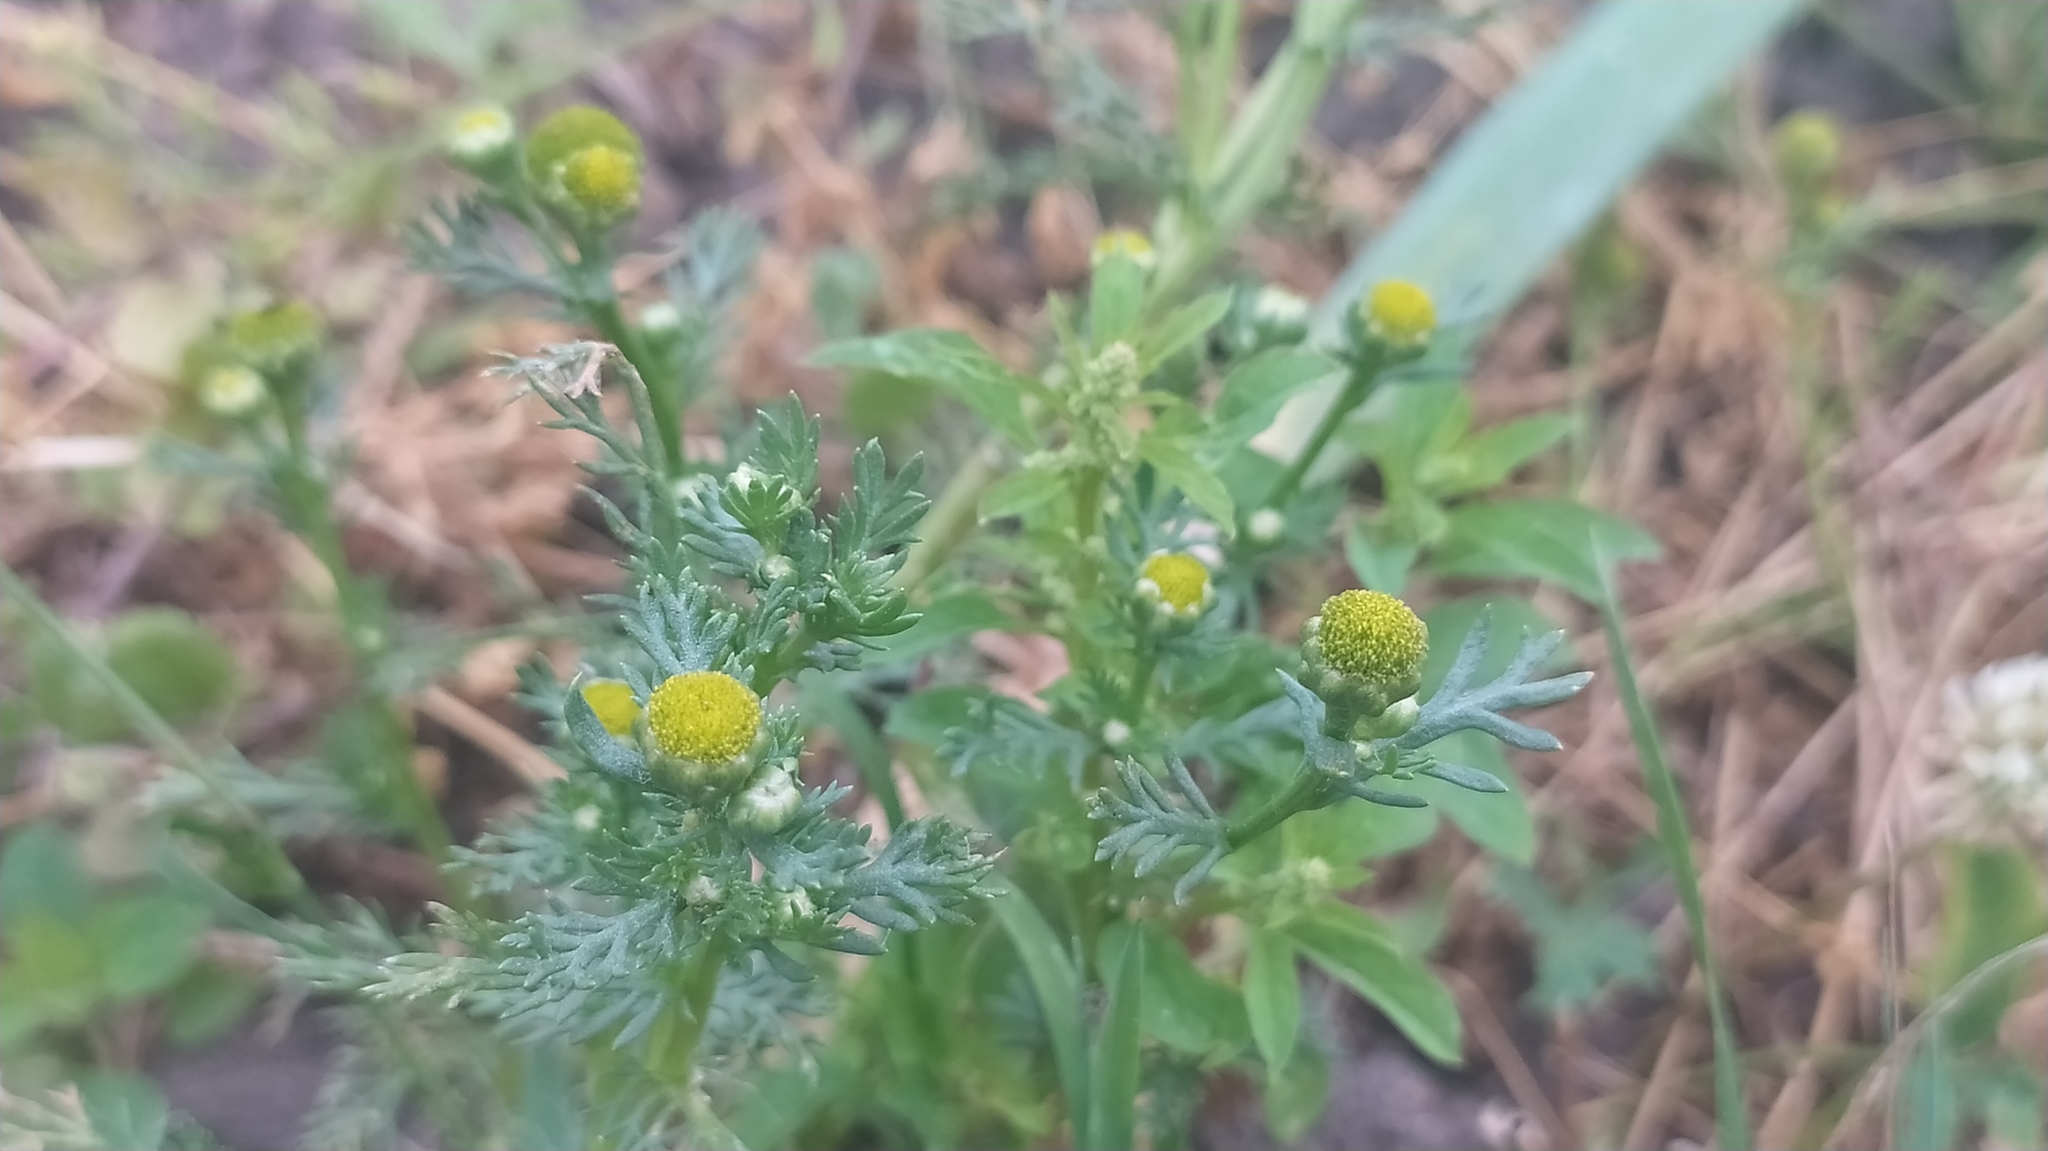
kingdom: Plantae
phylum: Tracheophyta
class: Magnoliopsida
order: Asterales
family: Asteraceae
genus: Matricaria
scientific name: Matricaria discoidea
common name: Disc mayweed
